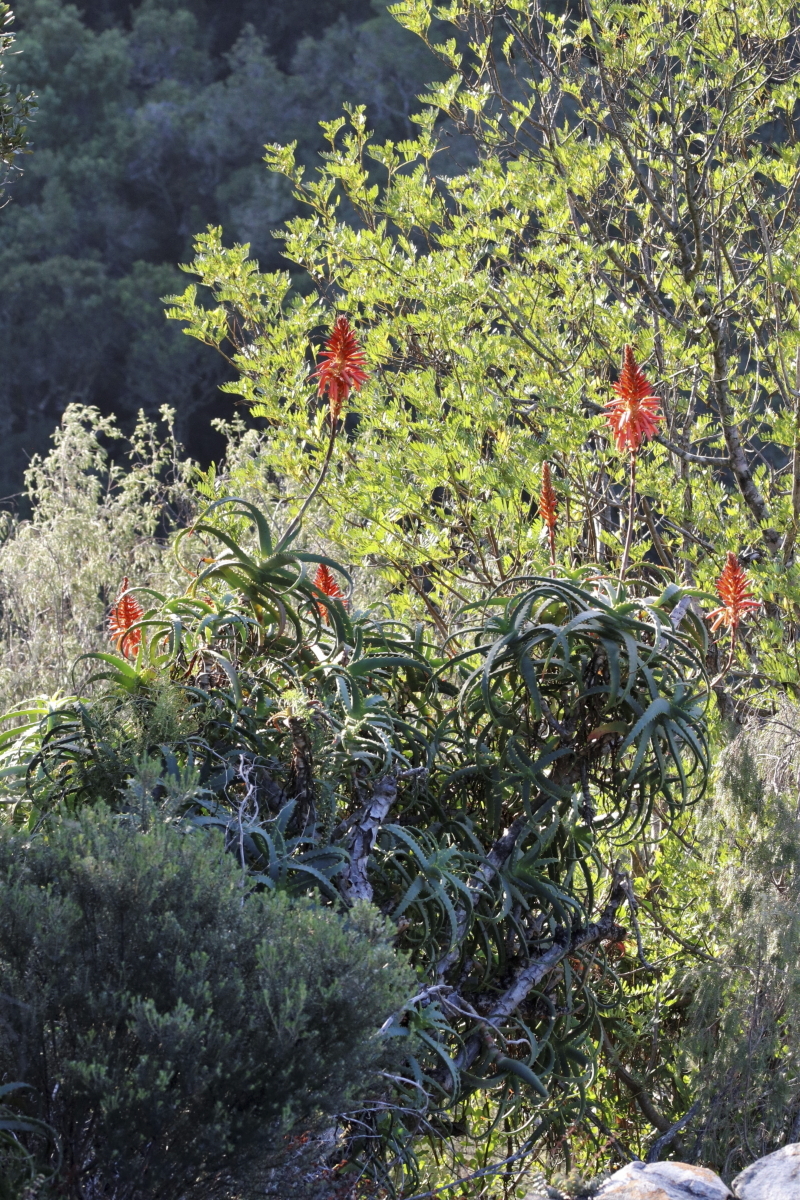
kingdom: Plantae
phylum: Tracheophyta
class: Liliopsida
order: Asparagales
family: Asphodelaceae
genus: Aloe
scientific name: Aloe arborescens
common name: Candelabra aloe
